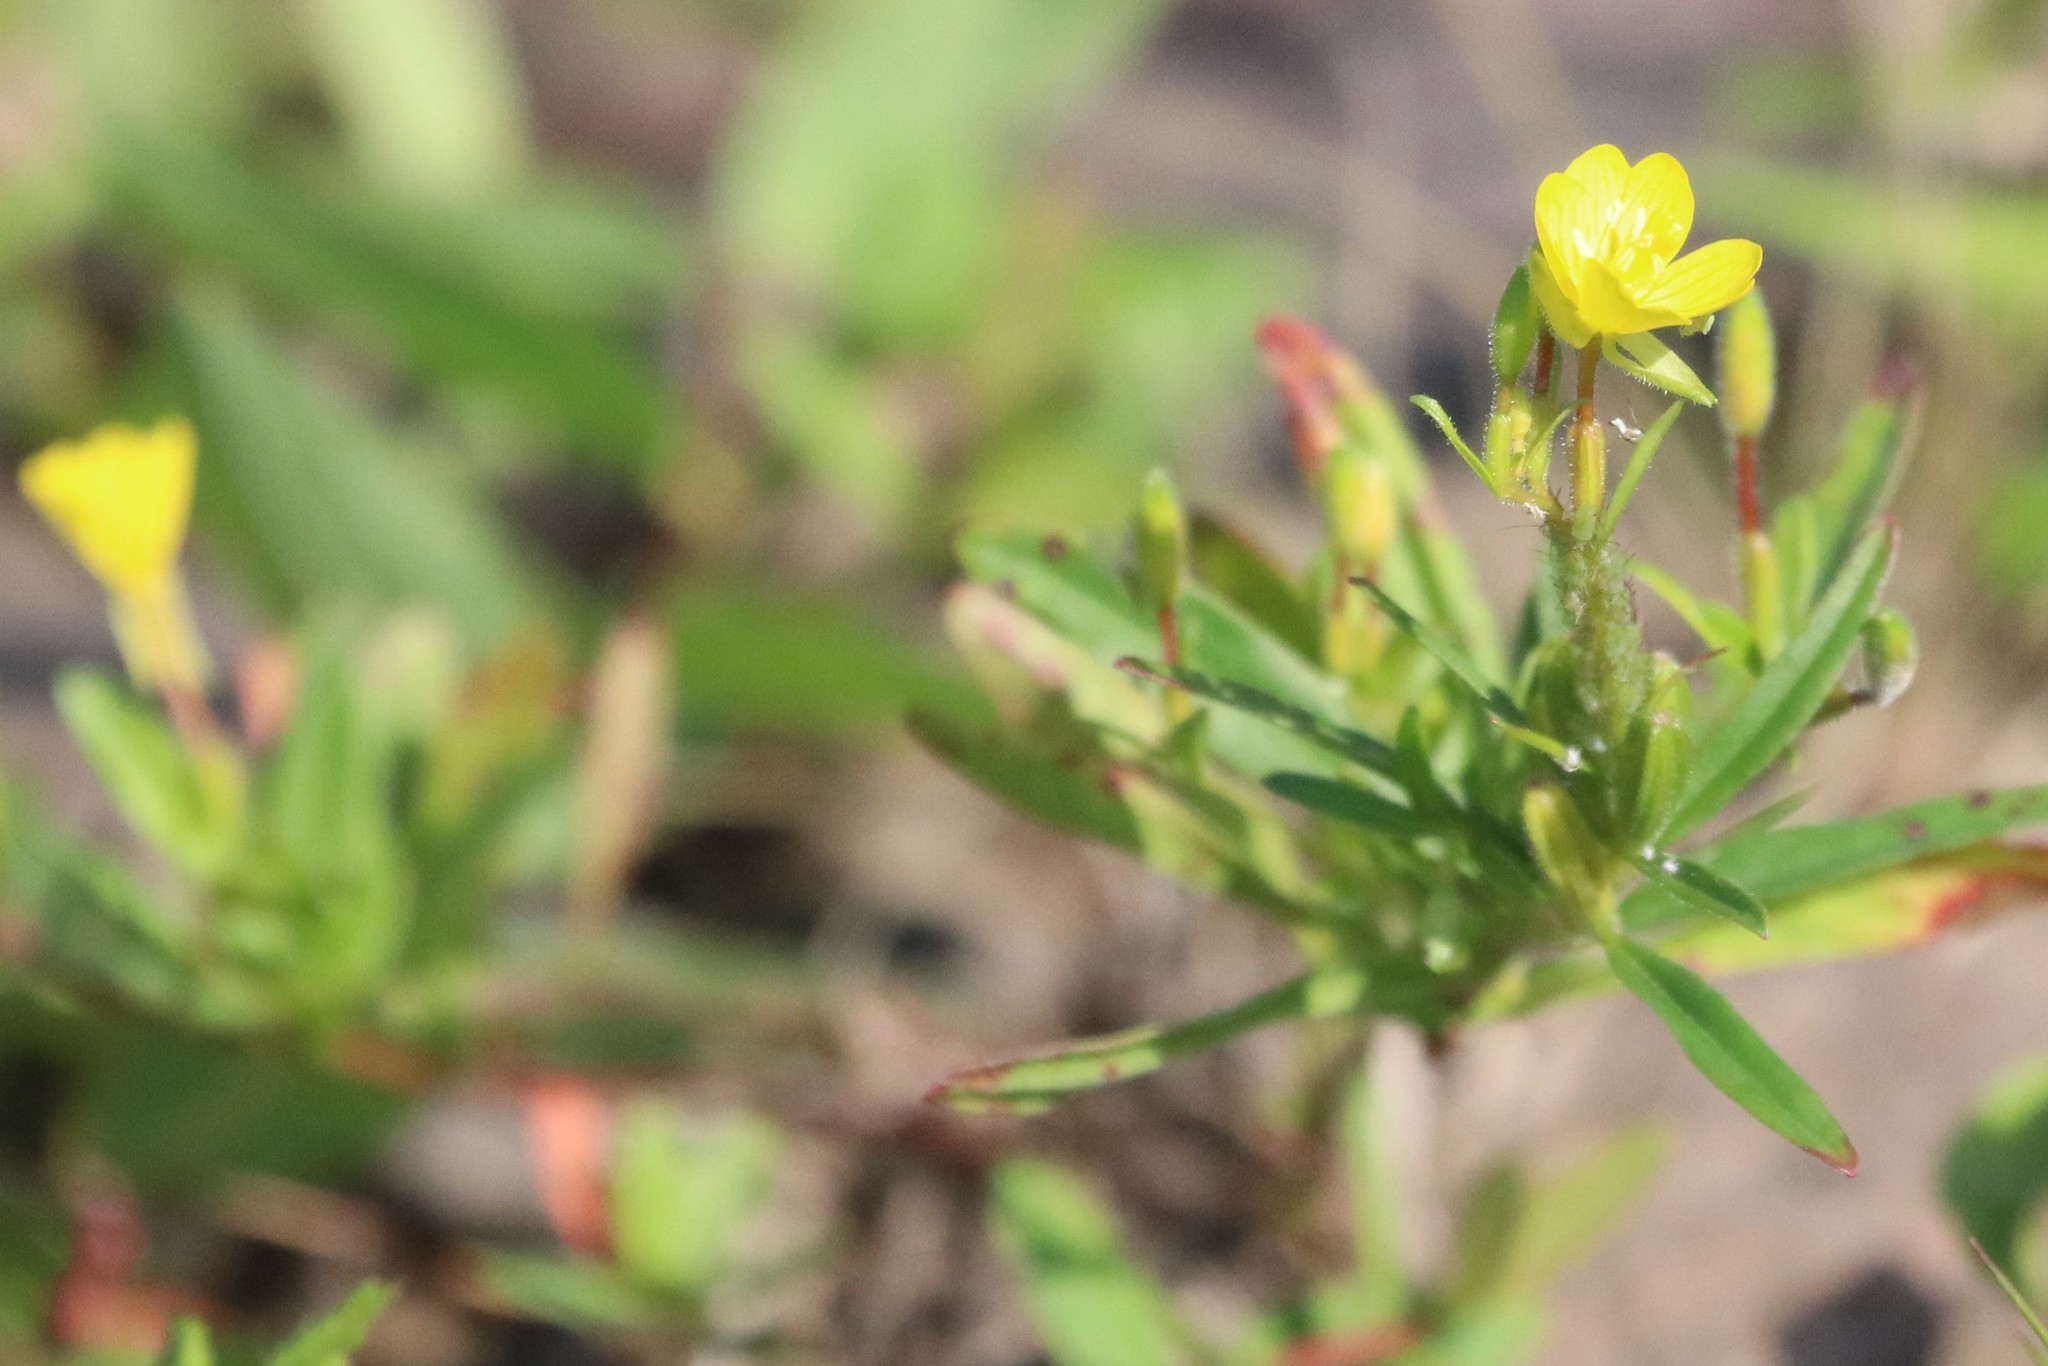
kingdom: Plantae
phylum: Tracheophyta
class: Magnoliopsida
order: Myrtales
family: Onagraceae
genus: Oenothera
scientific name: Oenothera perennis
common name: Small sundrops
